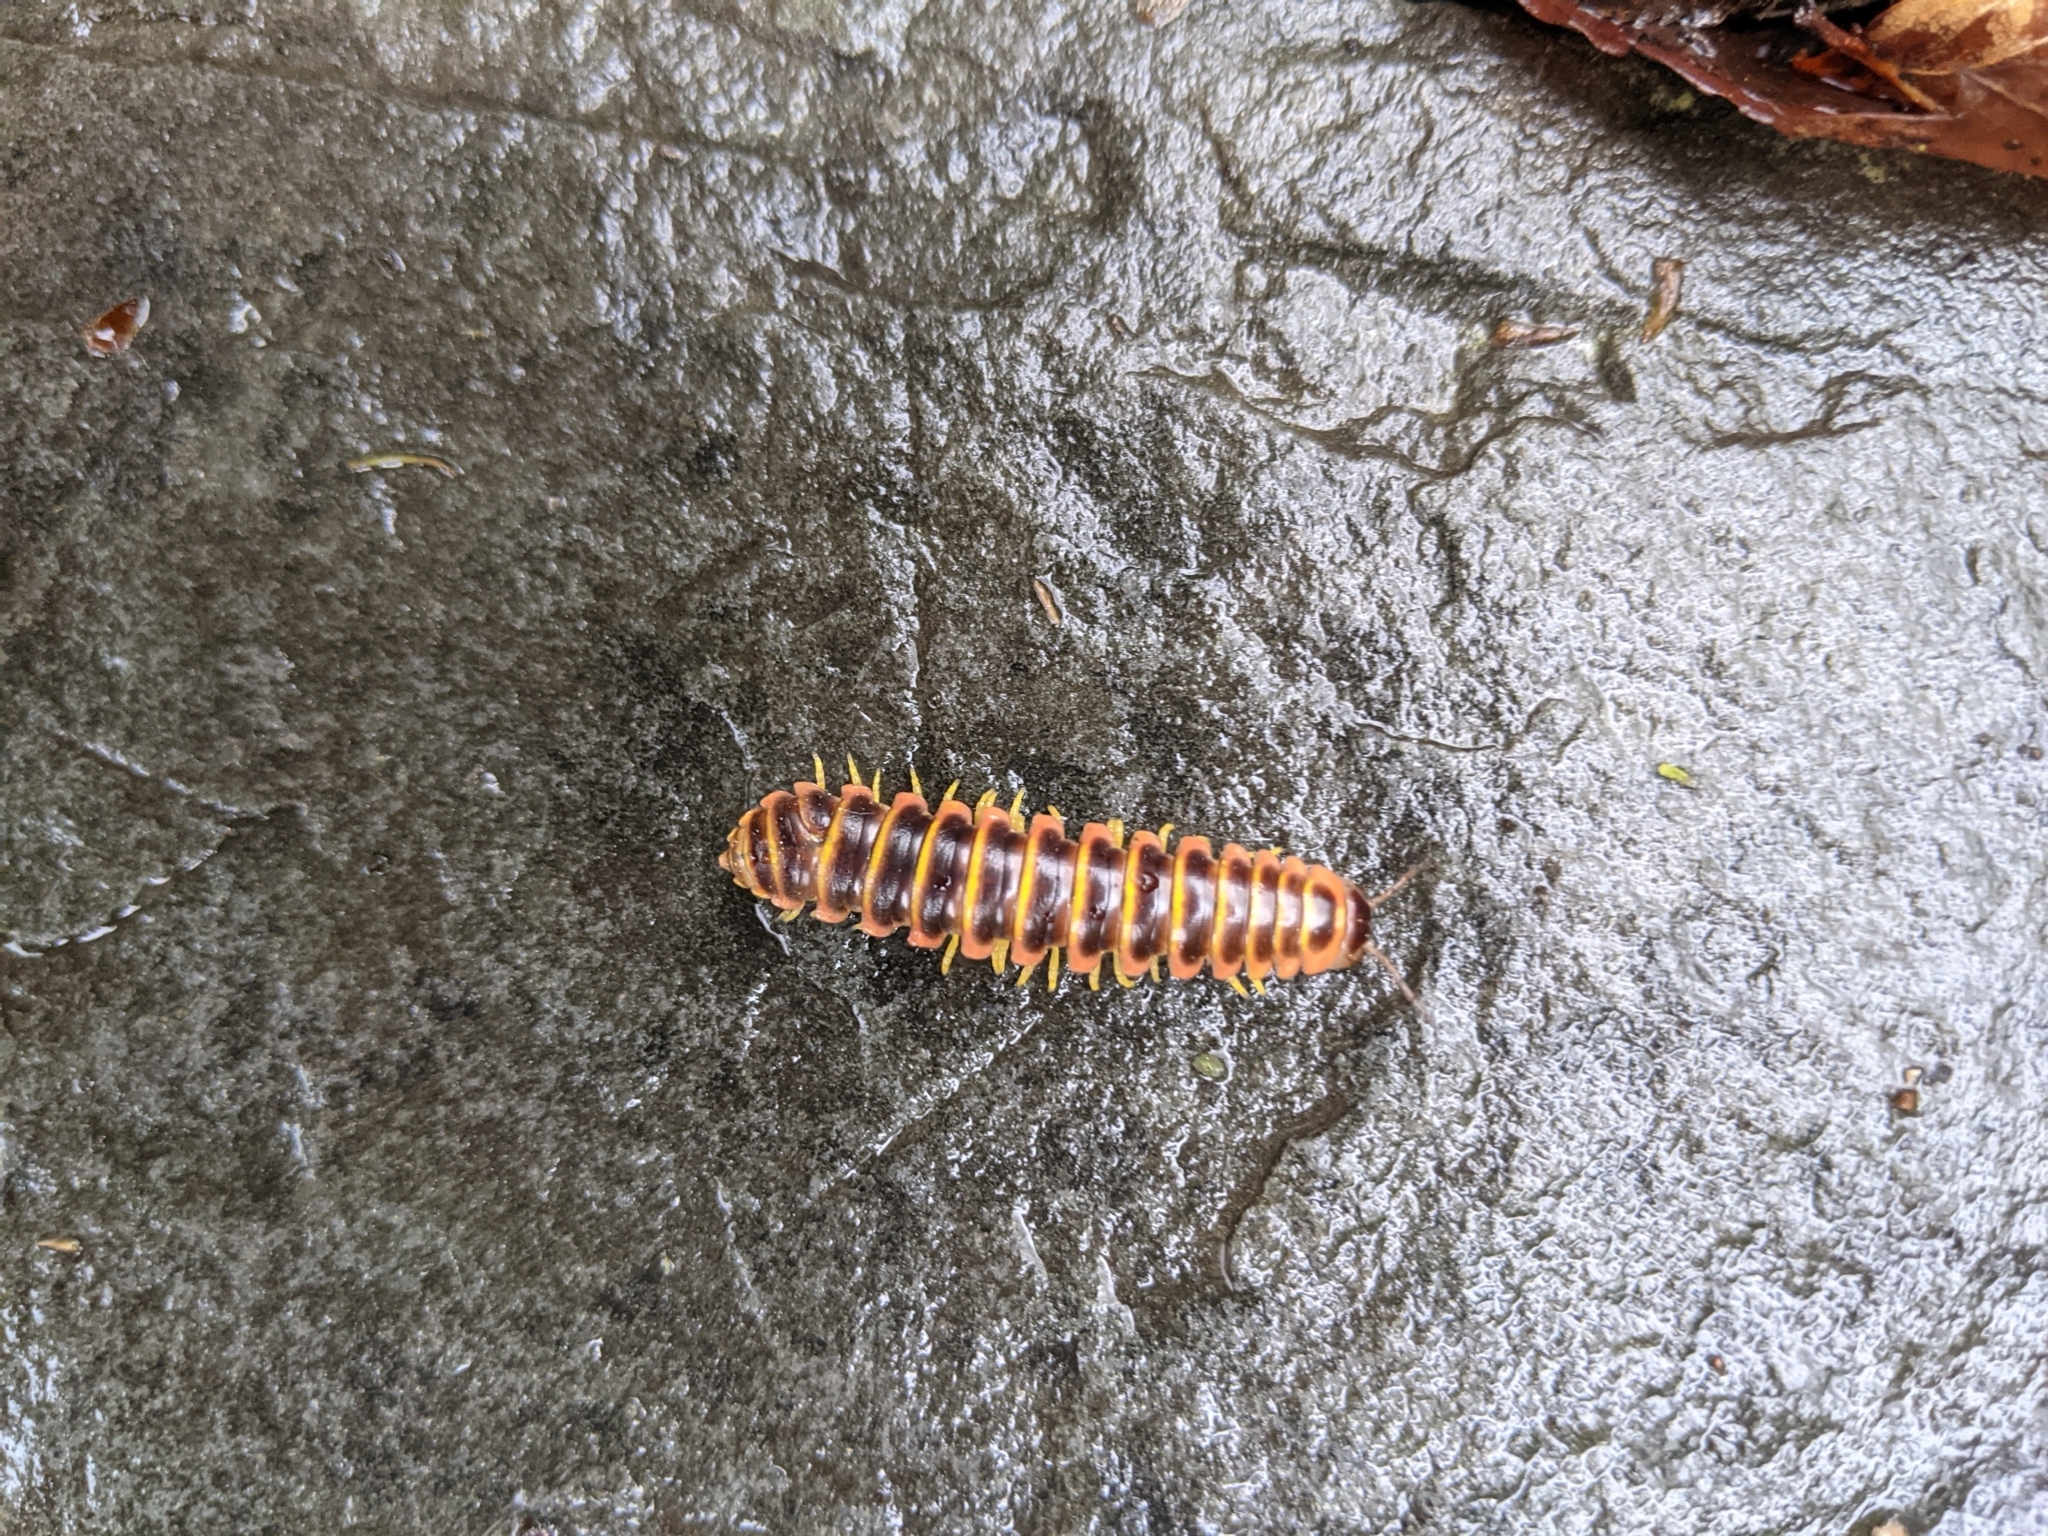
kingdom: Animalia
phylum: Arthropoda
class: Diplopoda
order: Polydesmida
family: Xystodesmidae
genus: Apheloria
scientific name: Apheloria virginiensis
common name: Black-and-gold flat millipede
